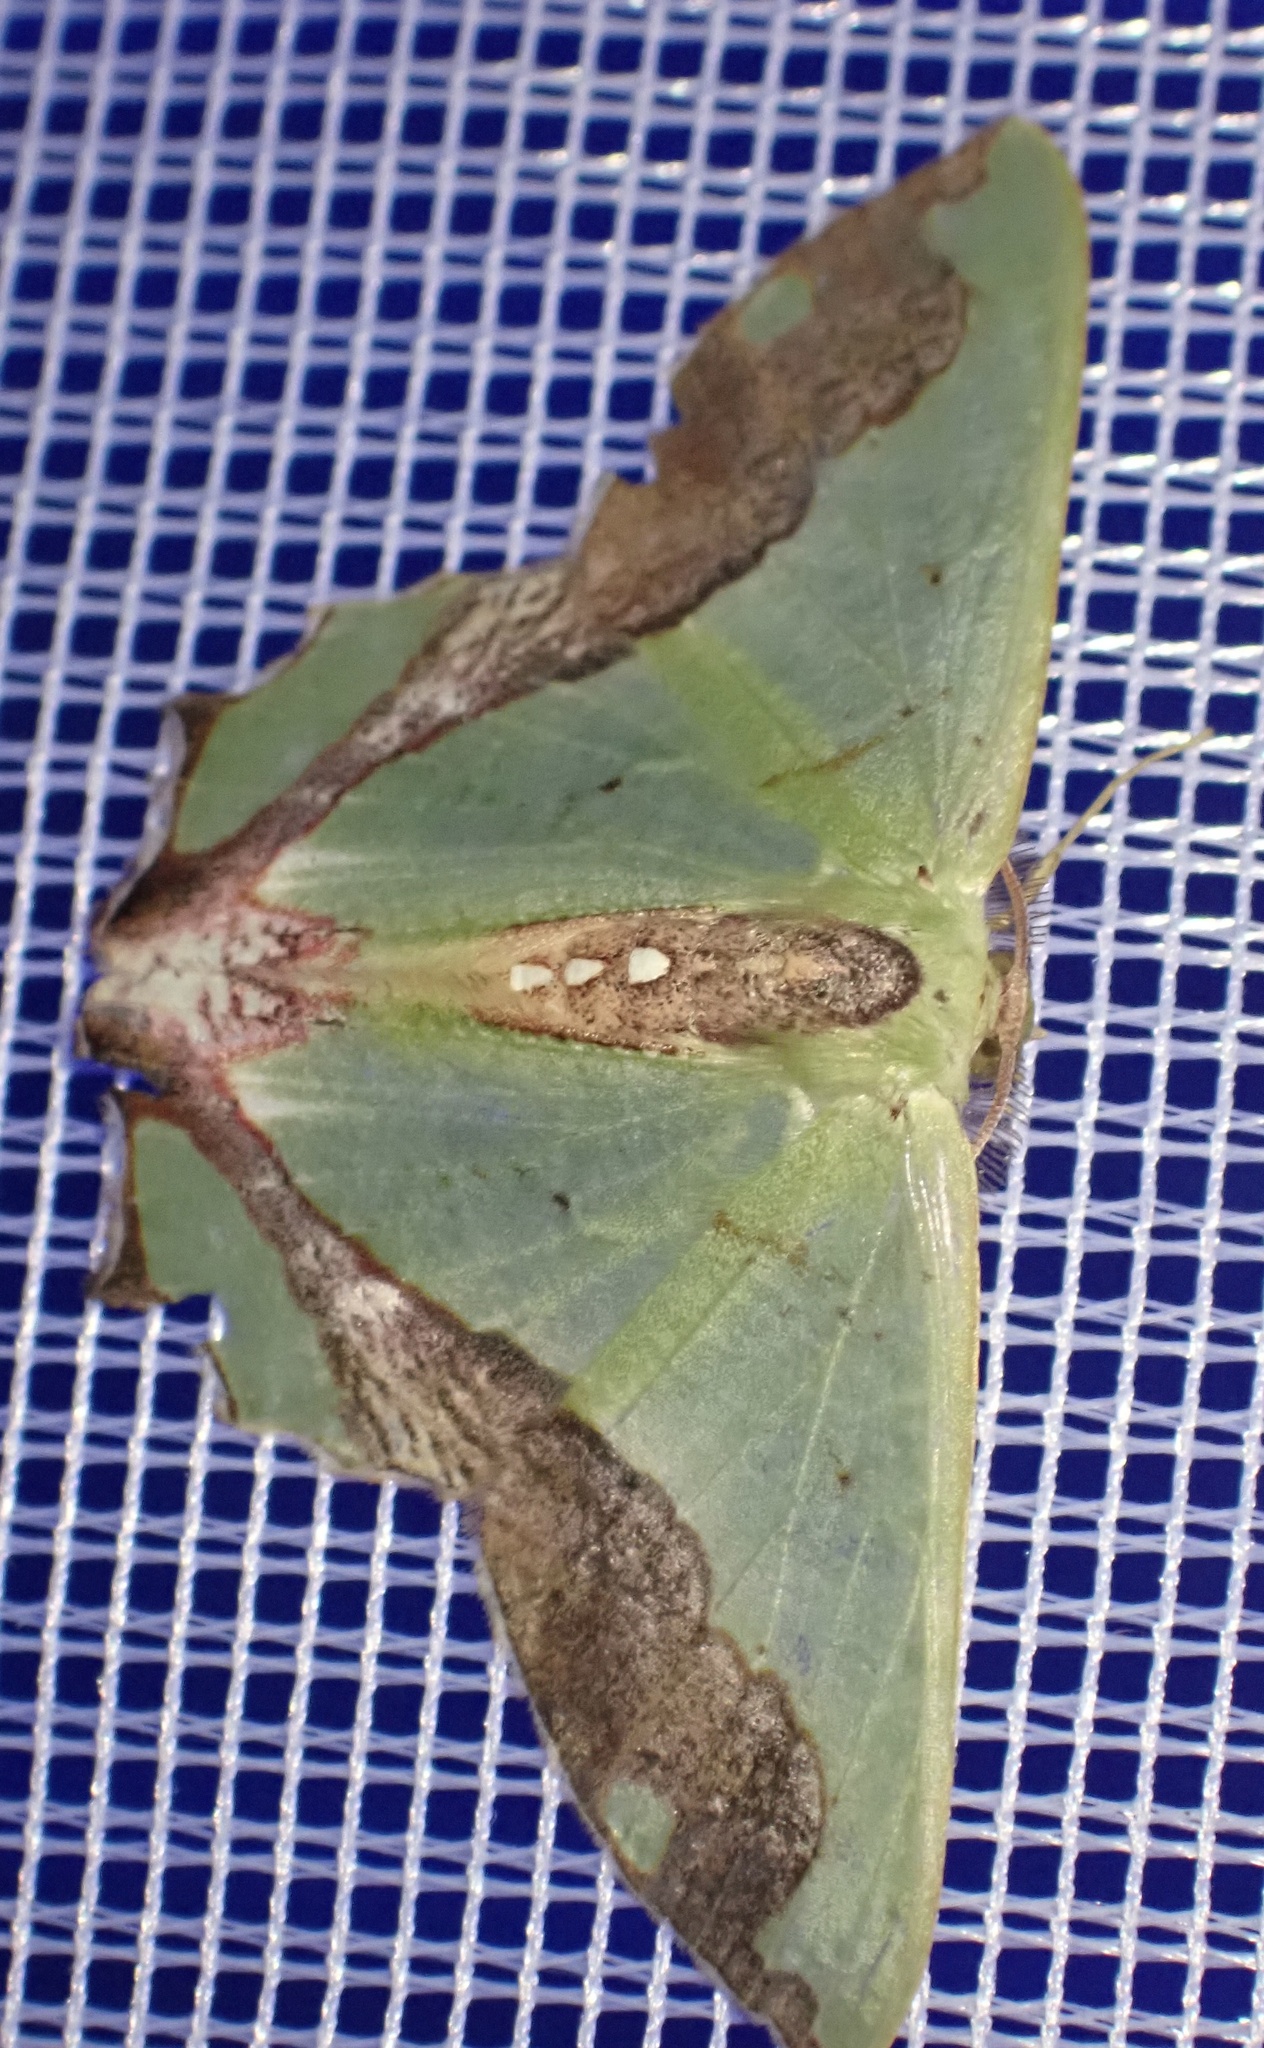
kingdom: Animalia
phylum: Arthropoda
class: Insecta
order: Lepidoptera
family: Geometridae
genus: Agathiopsis
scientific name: Agathiopsis maculata
